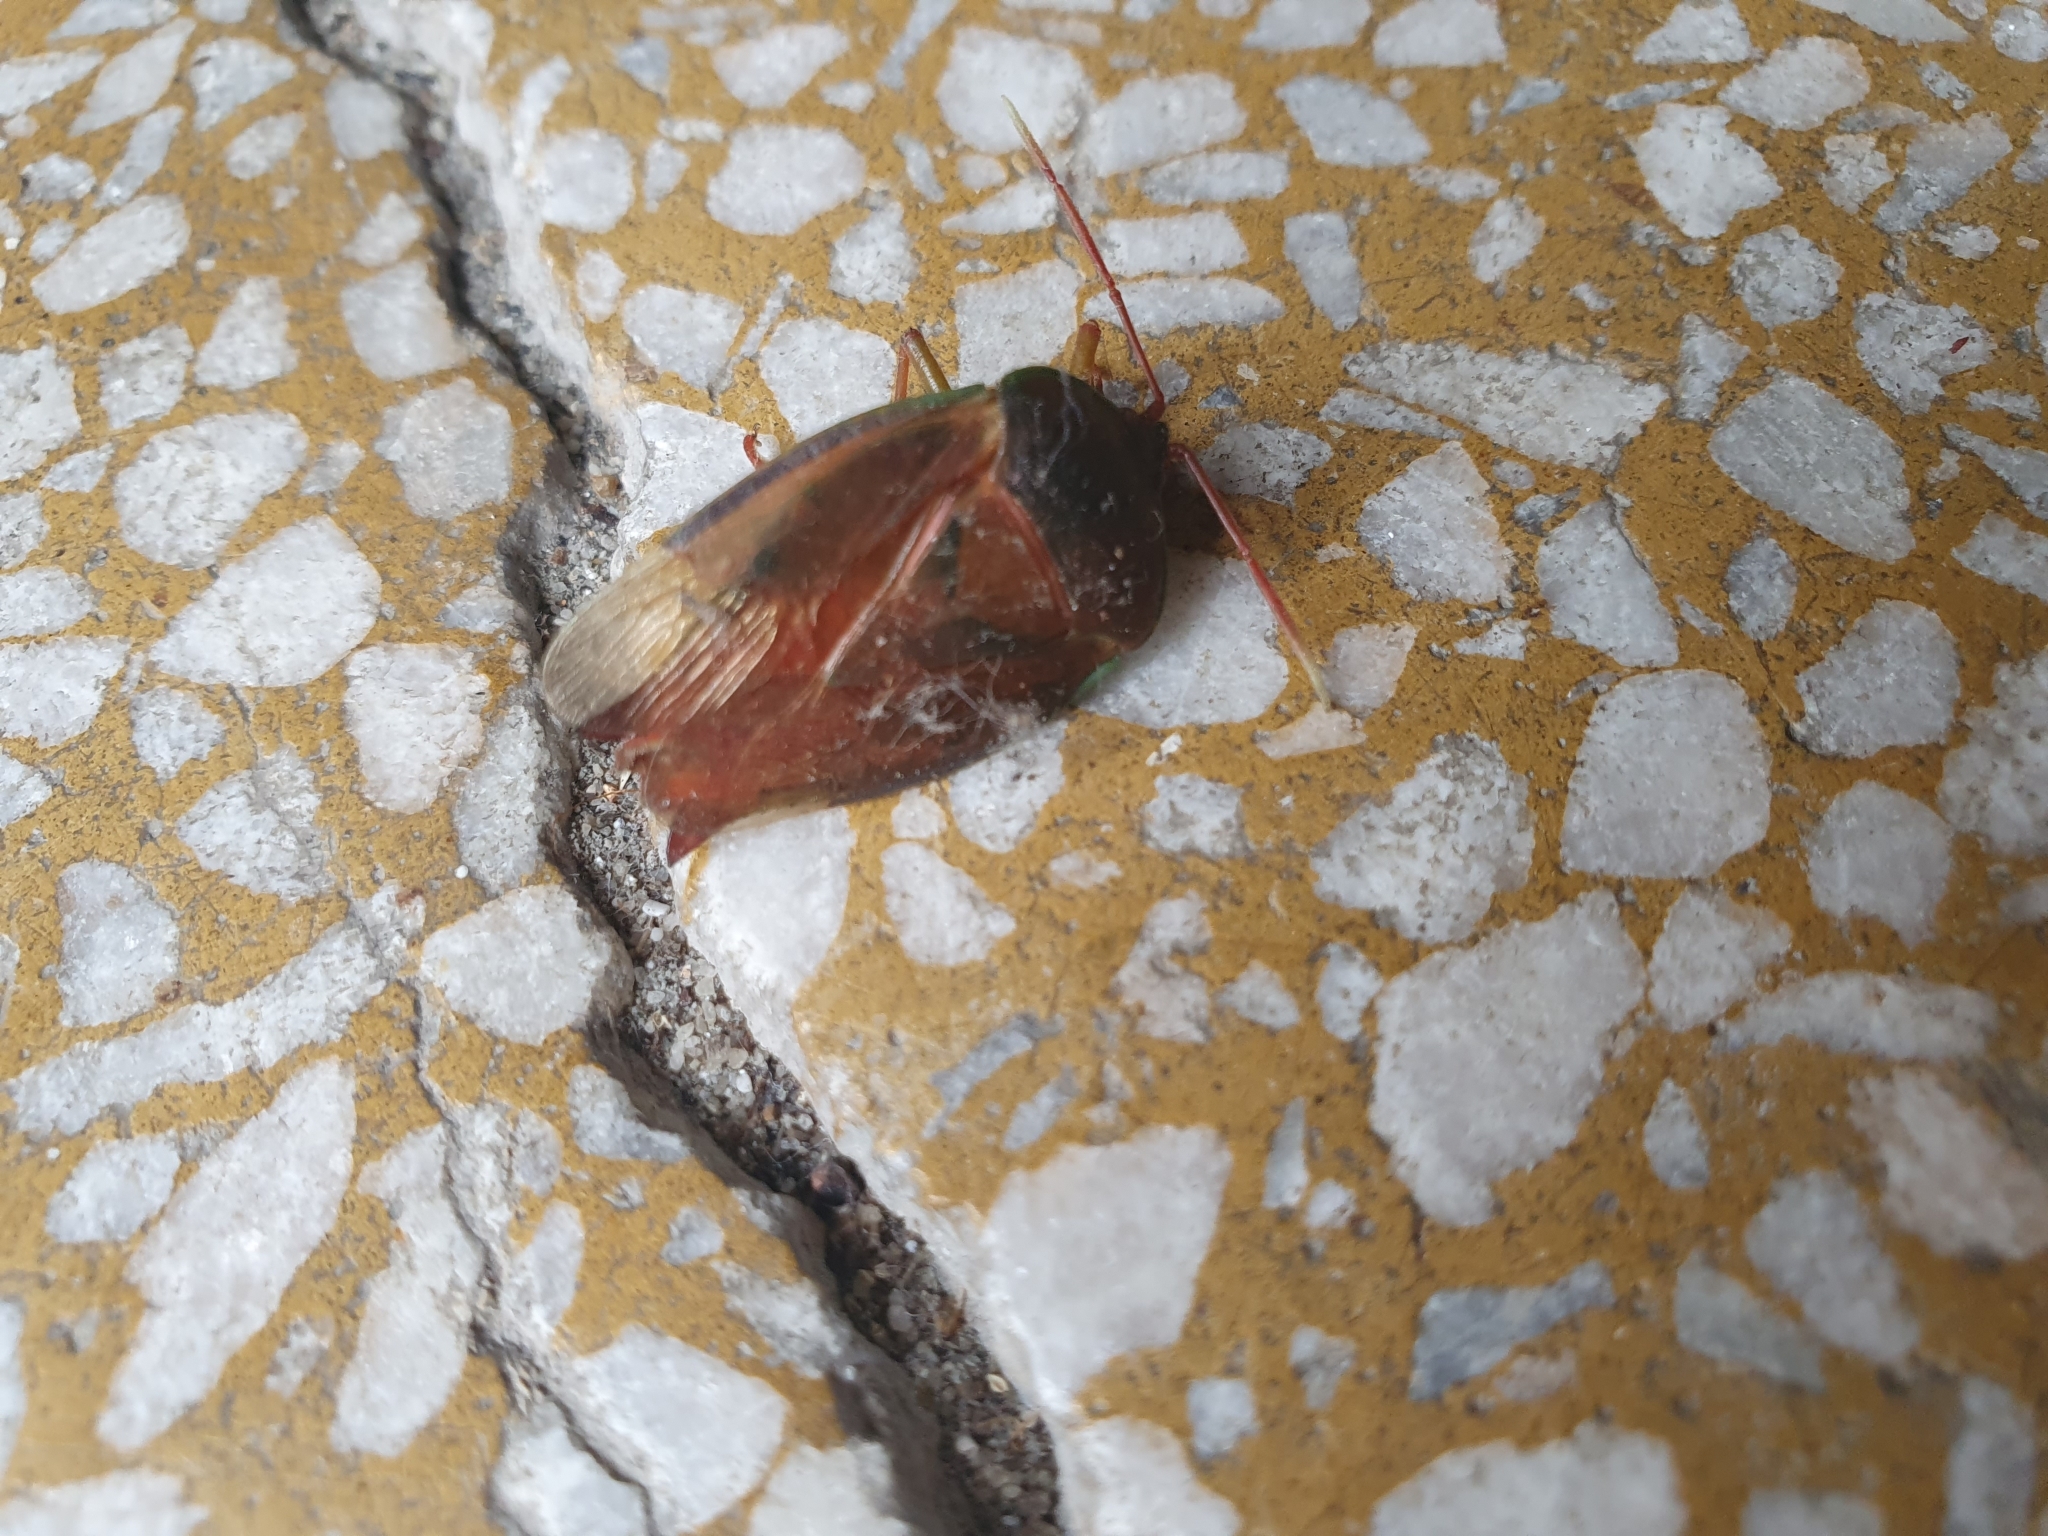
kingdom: Animalia
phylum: Arthropoda
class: Insecta
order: Hemiptera
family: Tessaratomidae
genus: Lyramorpha
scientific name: Lyramorpha rosea
